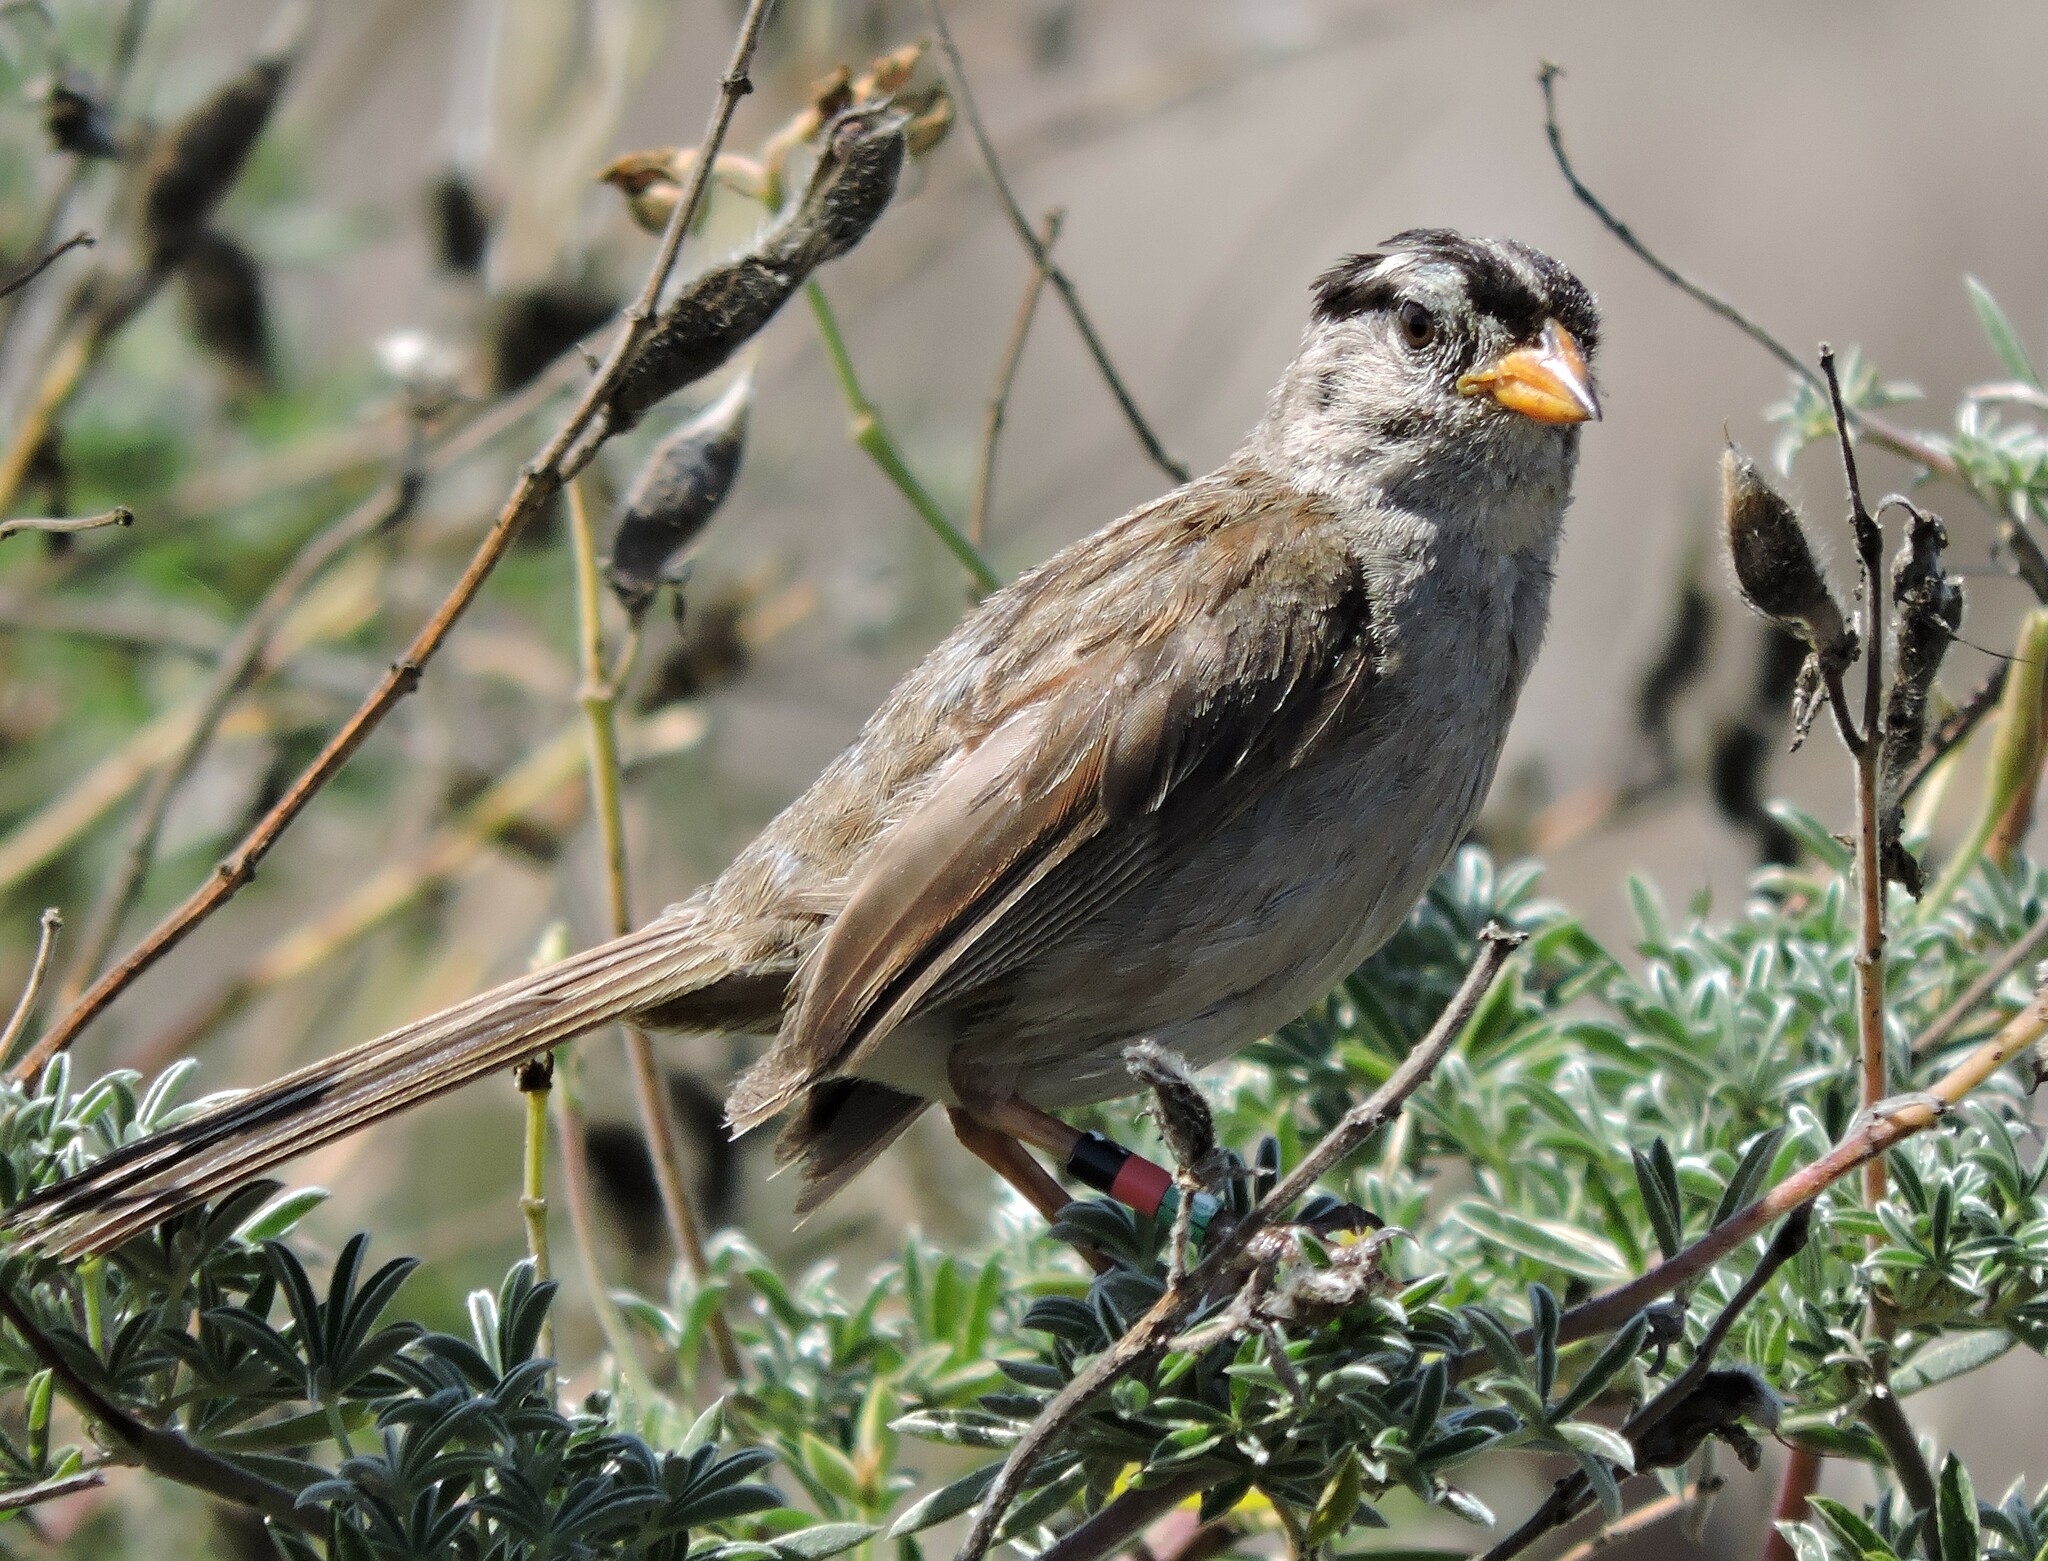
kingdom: Animalia
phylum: Chordata
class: Aves
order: Passeriformes
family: Passerellidae
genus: Zonotrichia
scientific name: Zonotrichia leucophrys
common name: White-crowned sparrow
